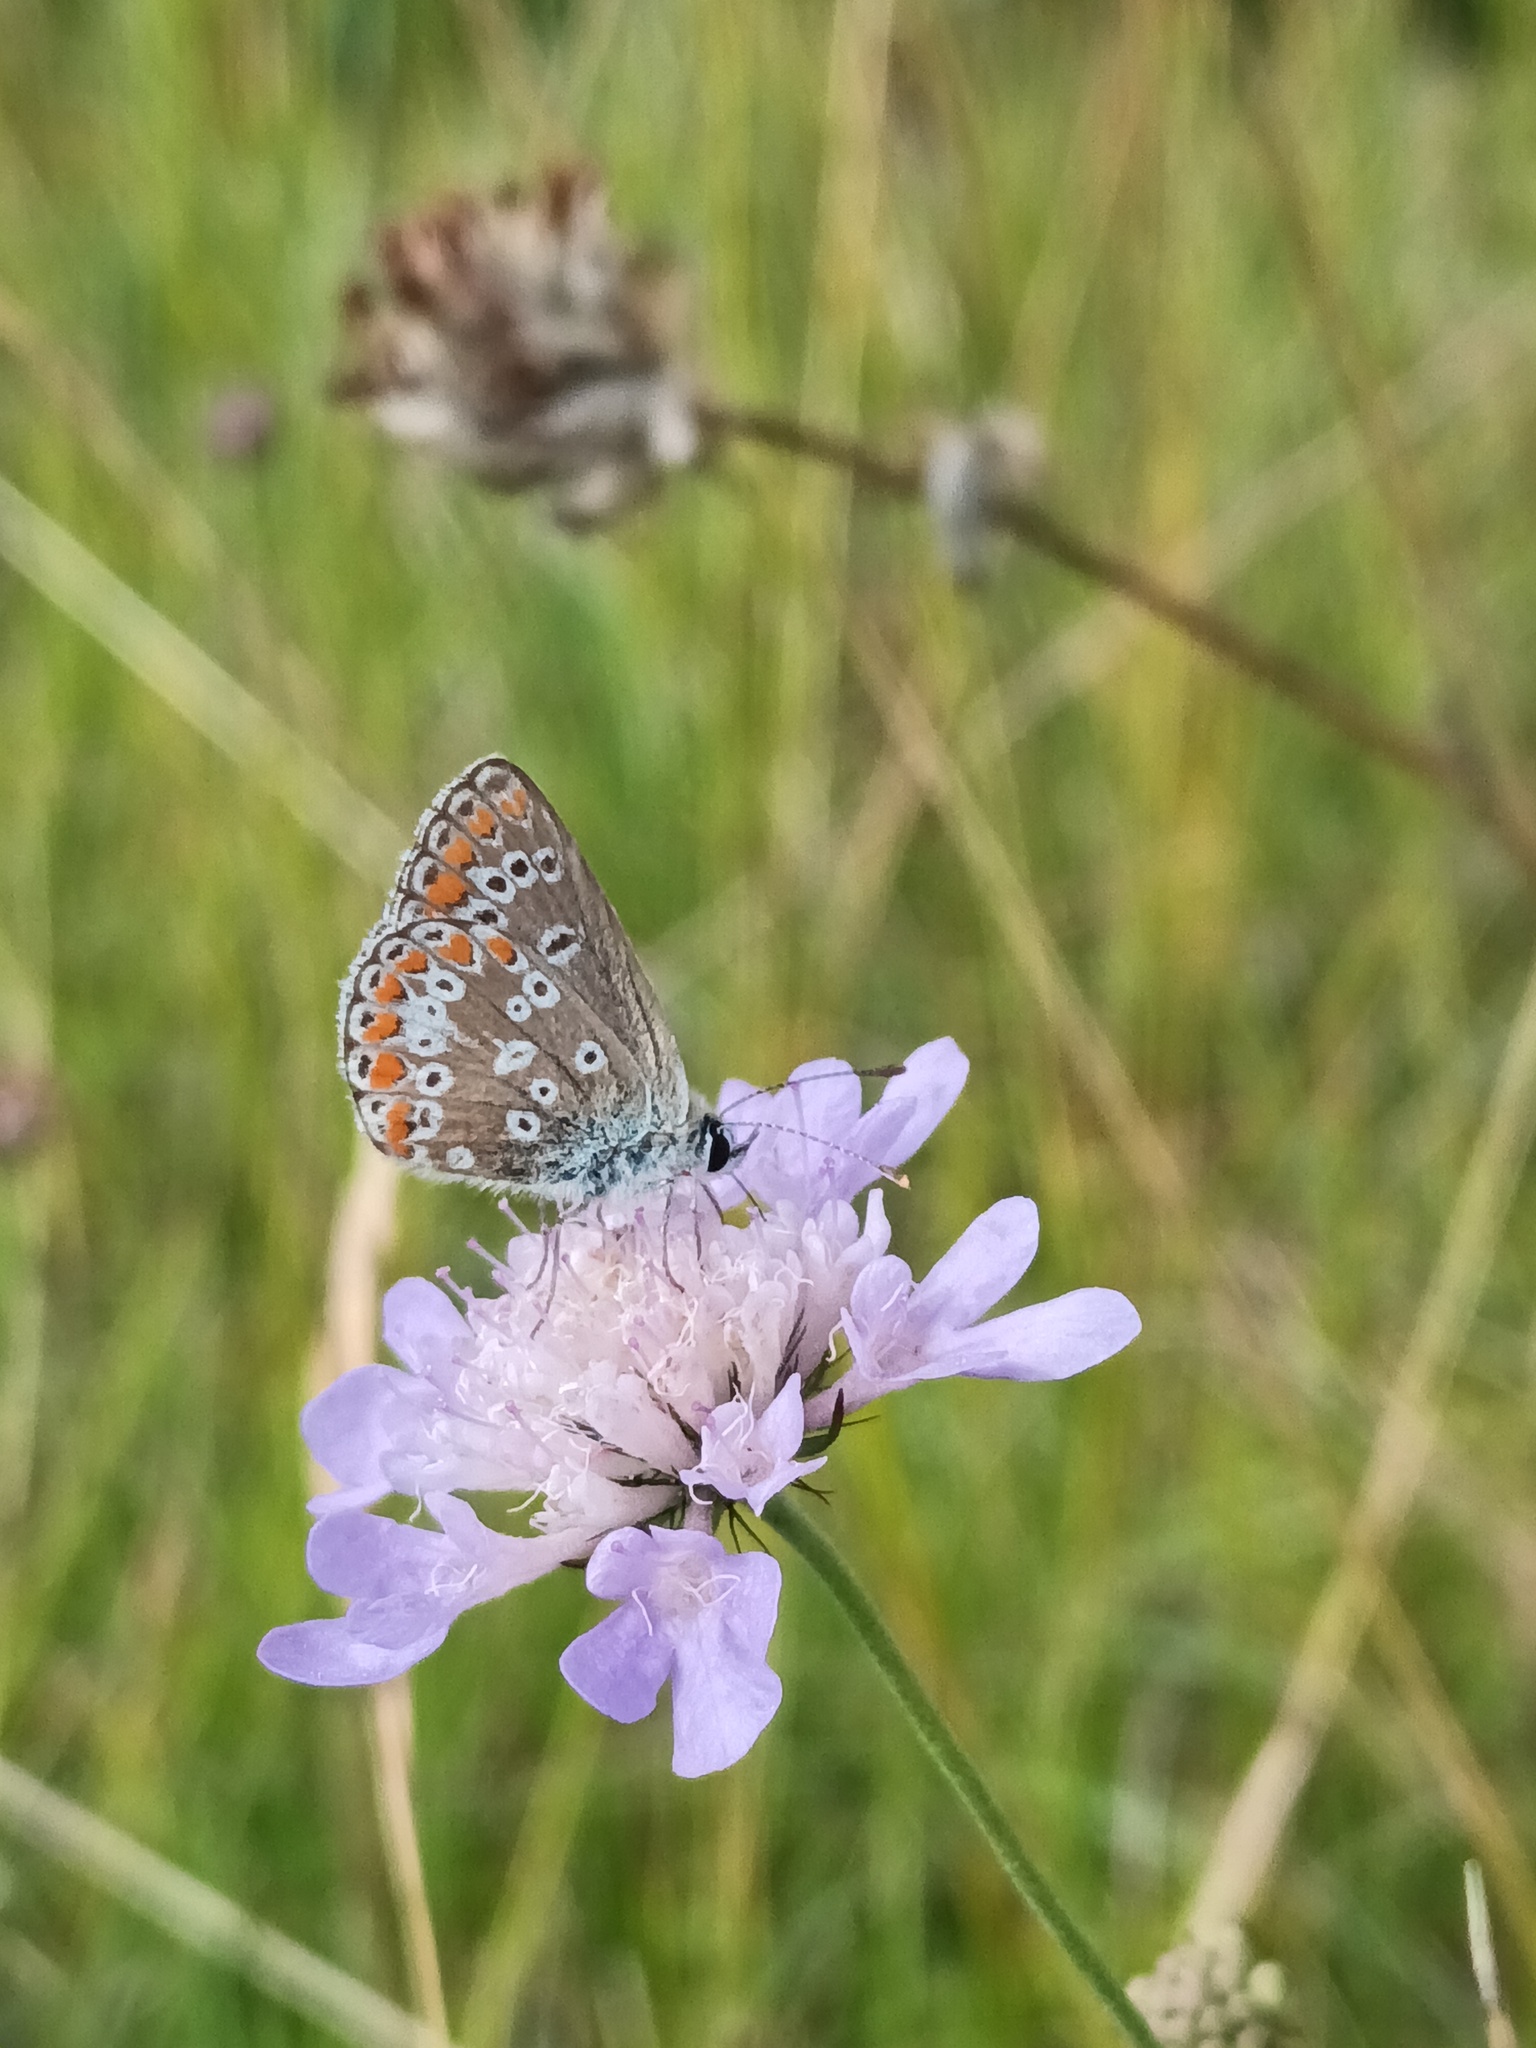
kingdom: Animalia
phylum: Arthropoda
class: Insecta
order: Lepidoptera
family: Lycaenidae
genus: Aricia
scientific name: Aricia agestis
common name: Brown argus
